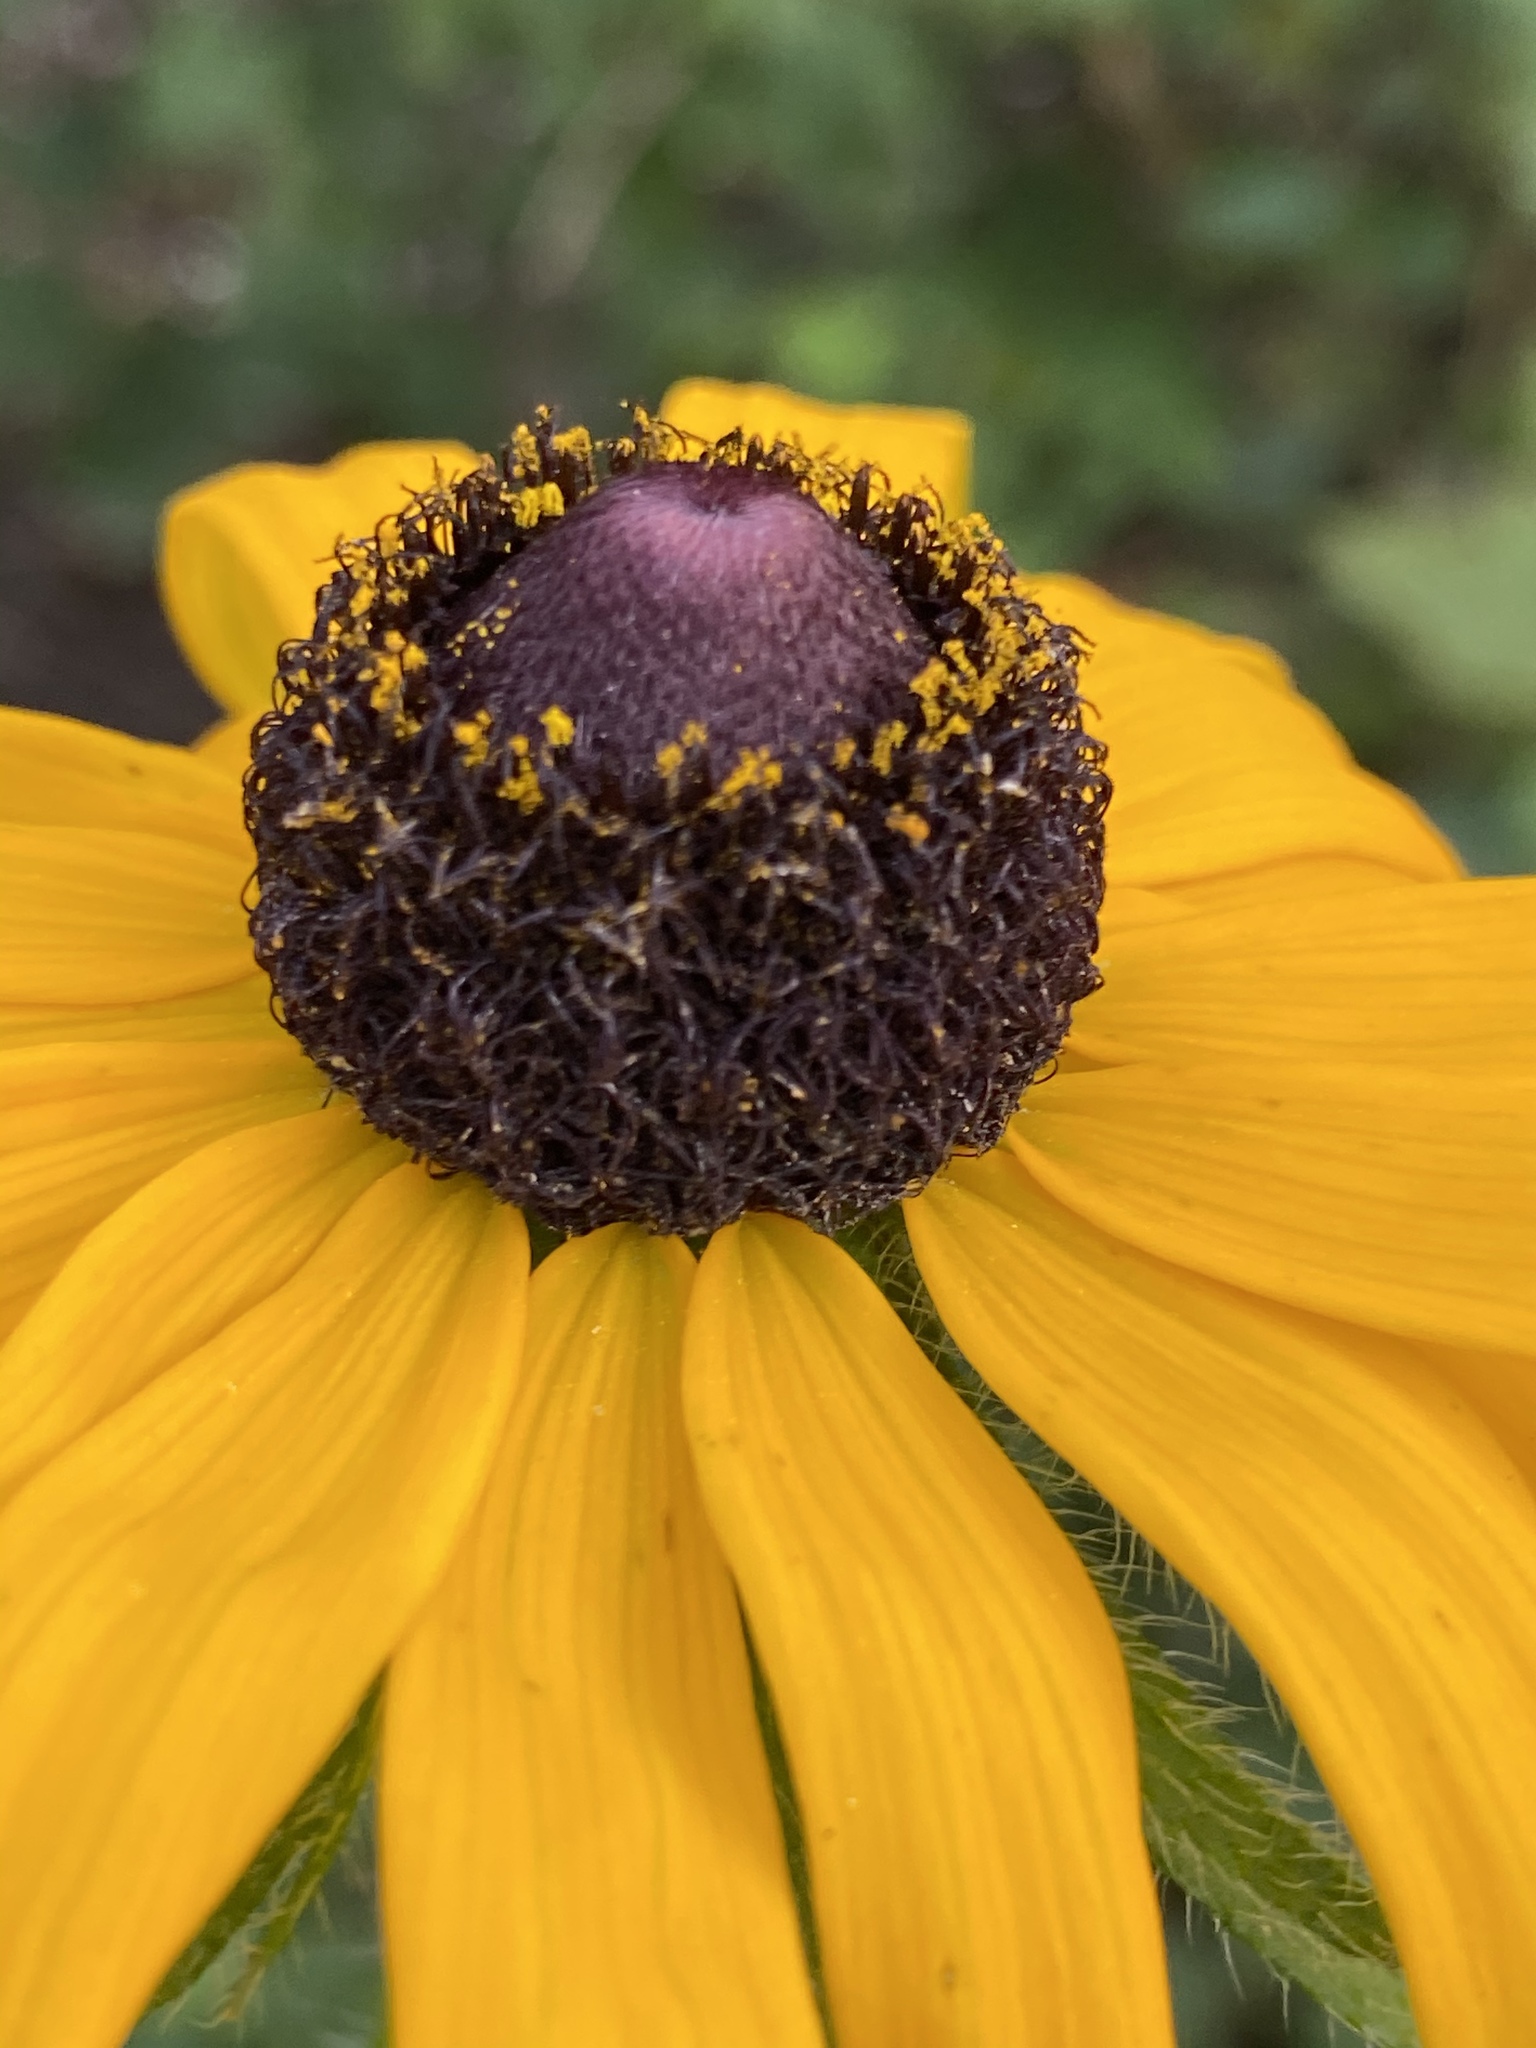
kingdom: Plantae
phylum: Tracheophyta
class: Magnoliopsida
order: Asterales
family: Asteraceae
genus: Rudbeckia
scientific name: Rudbeckia hirta
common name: Black-eyed-susan
